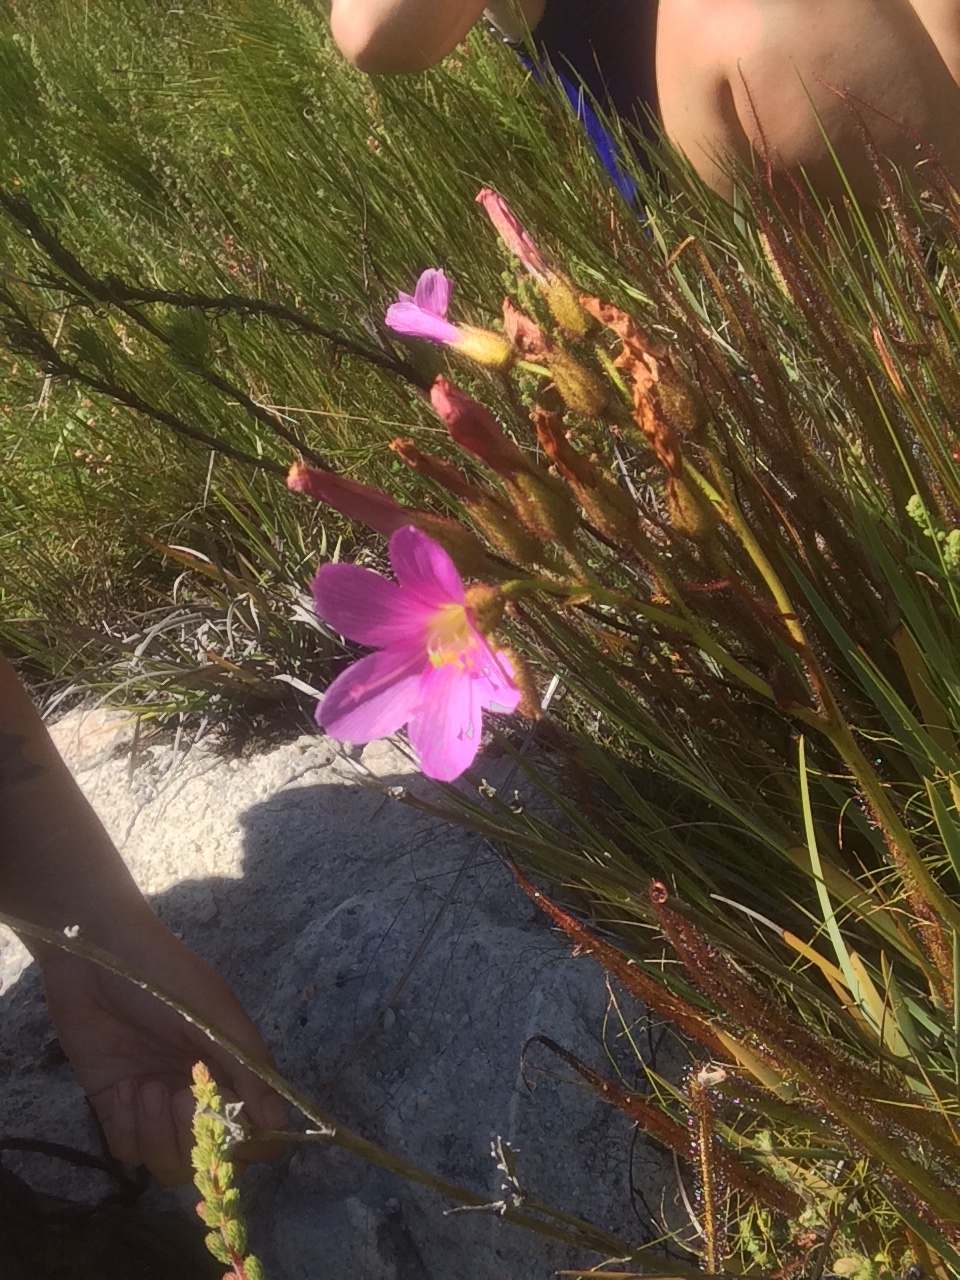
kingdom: Plantae
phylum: Tracheophyta
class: Magnoliopsida
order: Caryophyllales
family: Droseraceae
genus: Drosera
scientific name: Drosera regia
